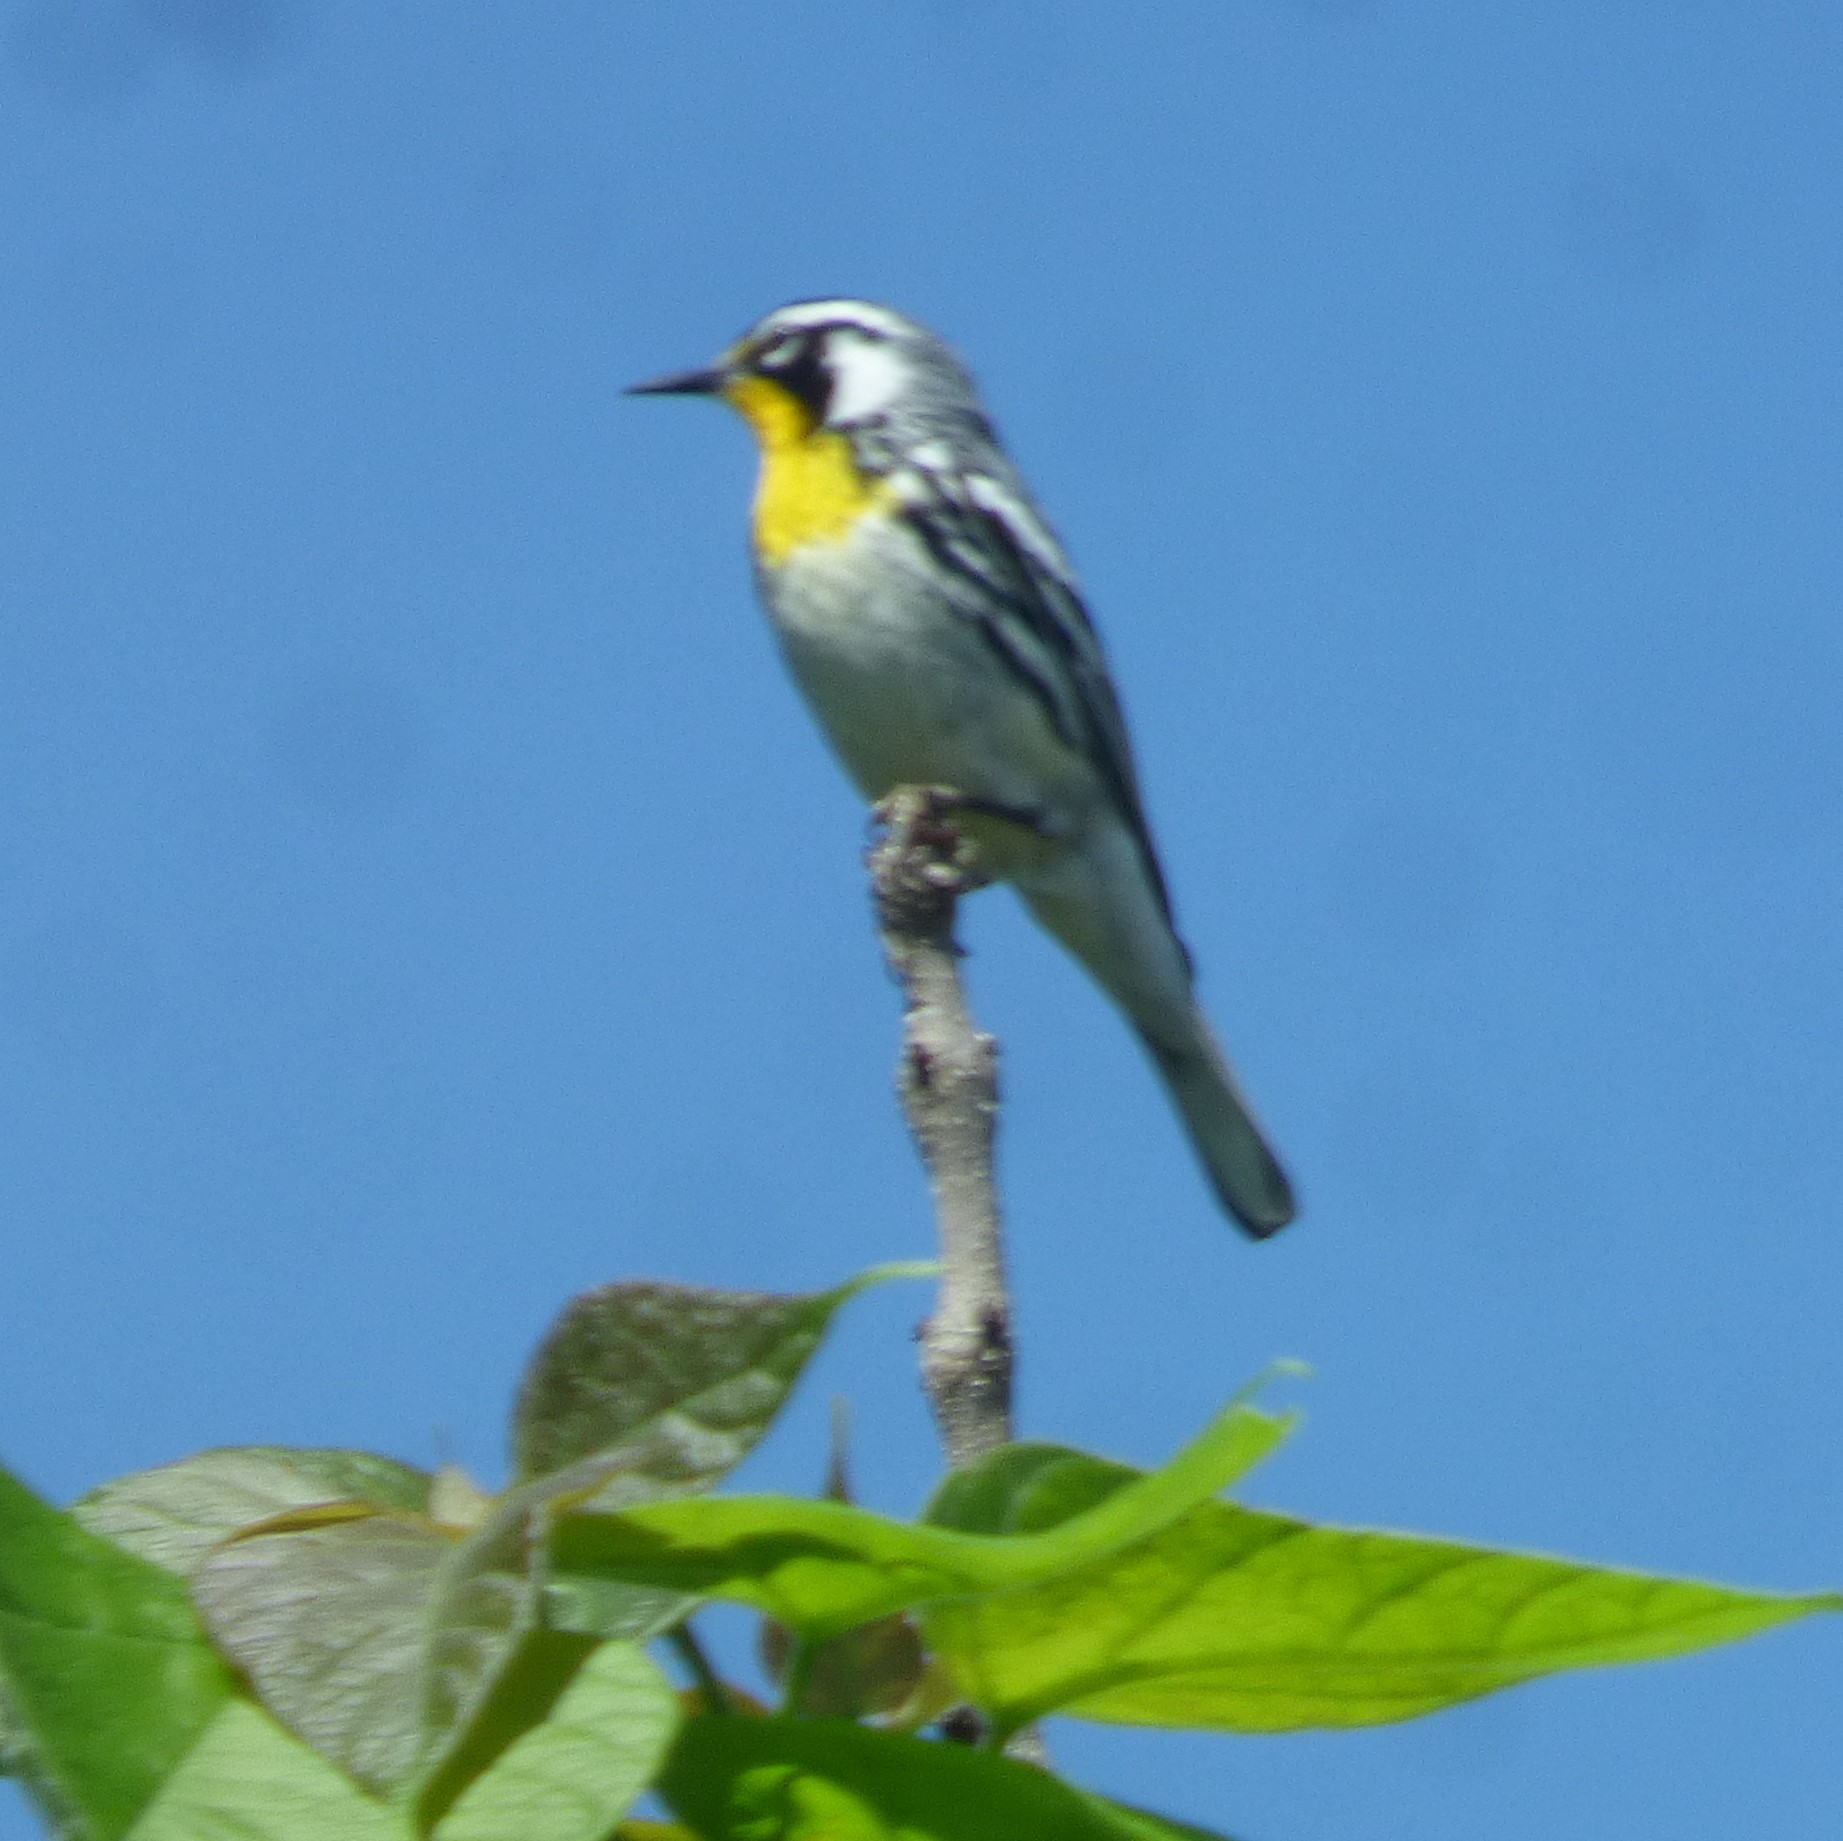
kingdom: Animalia
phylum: Chordata
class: Aves
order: Passeriformes
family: Parulidae
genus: Setophaga
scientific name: Setophaga dominica
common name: Yellow-throated warbler
